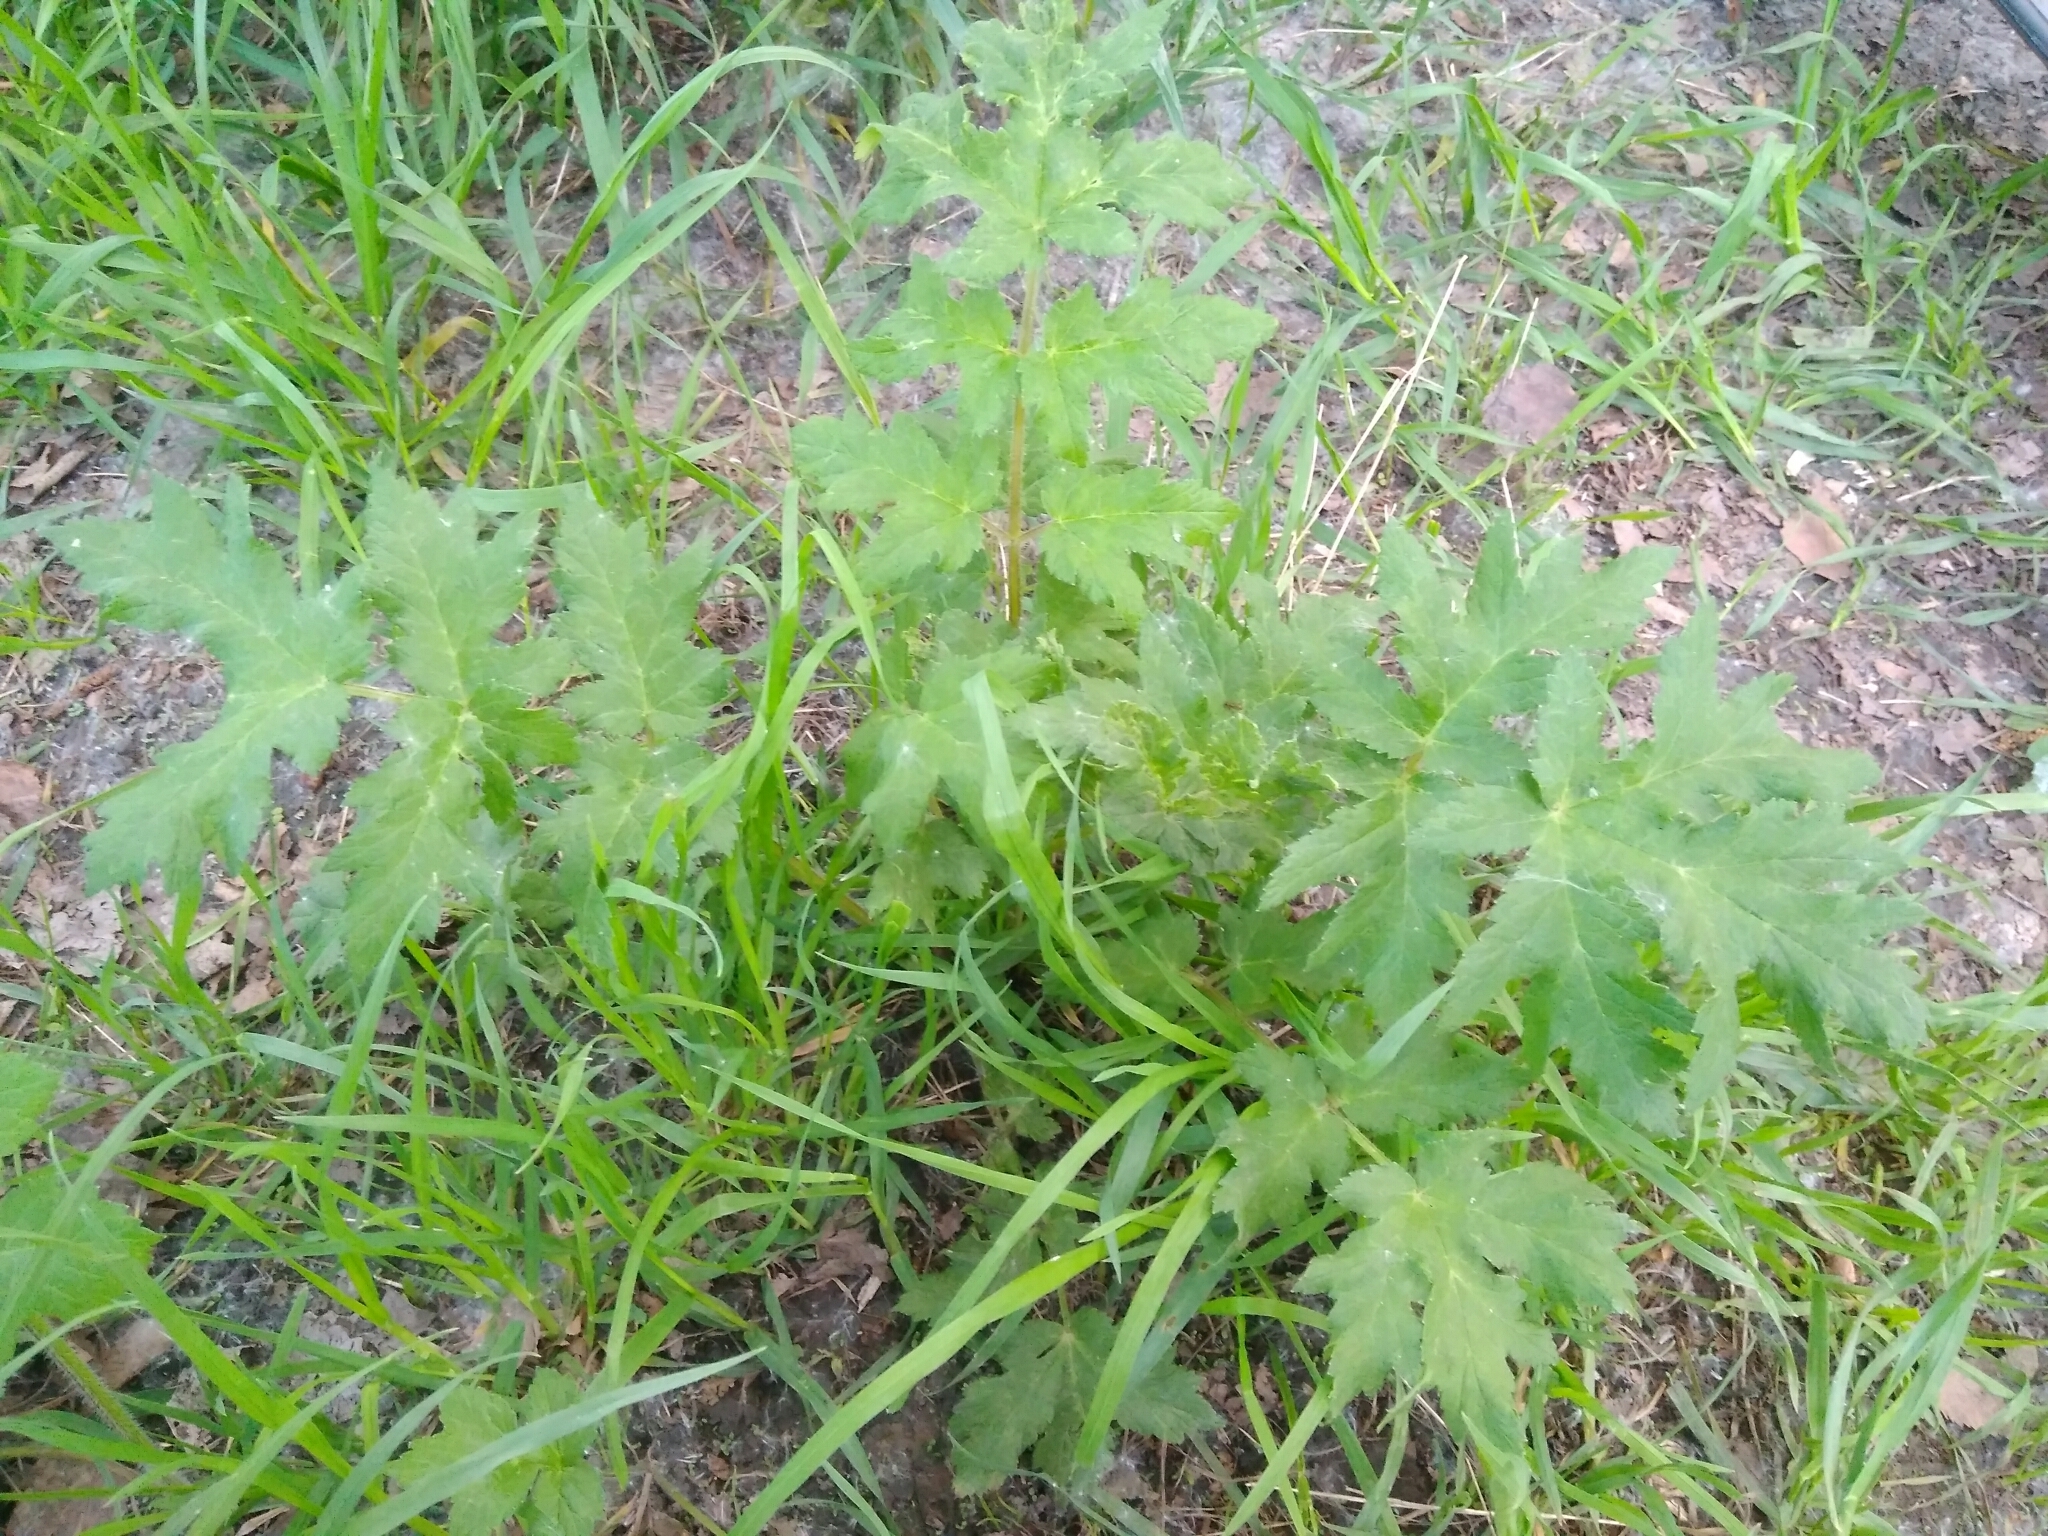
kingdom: Plantae
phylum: Tracheophyta
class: Magnoliopsida
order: Apiales
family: Apiaceae
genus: Heracleum
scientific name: Heracleum sphondylium
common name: Hogweed
